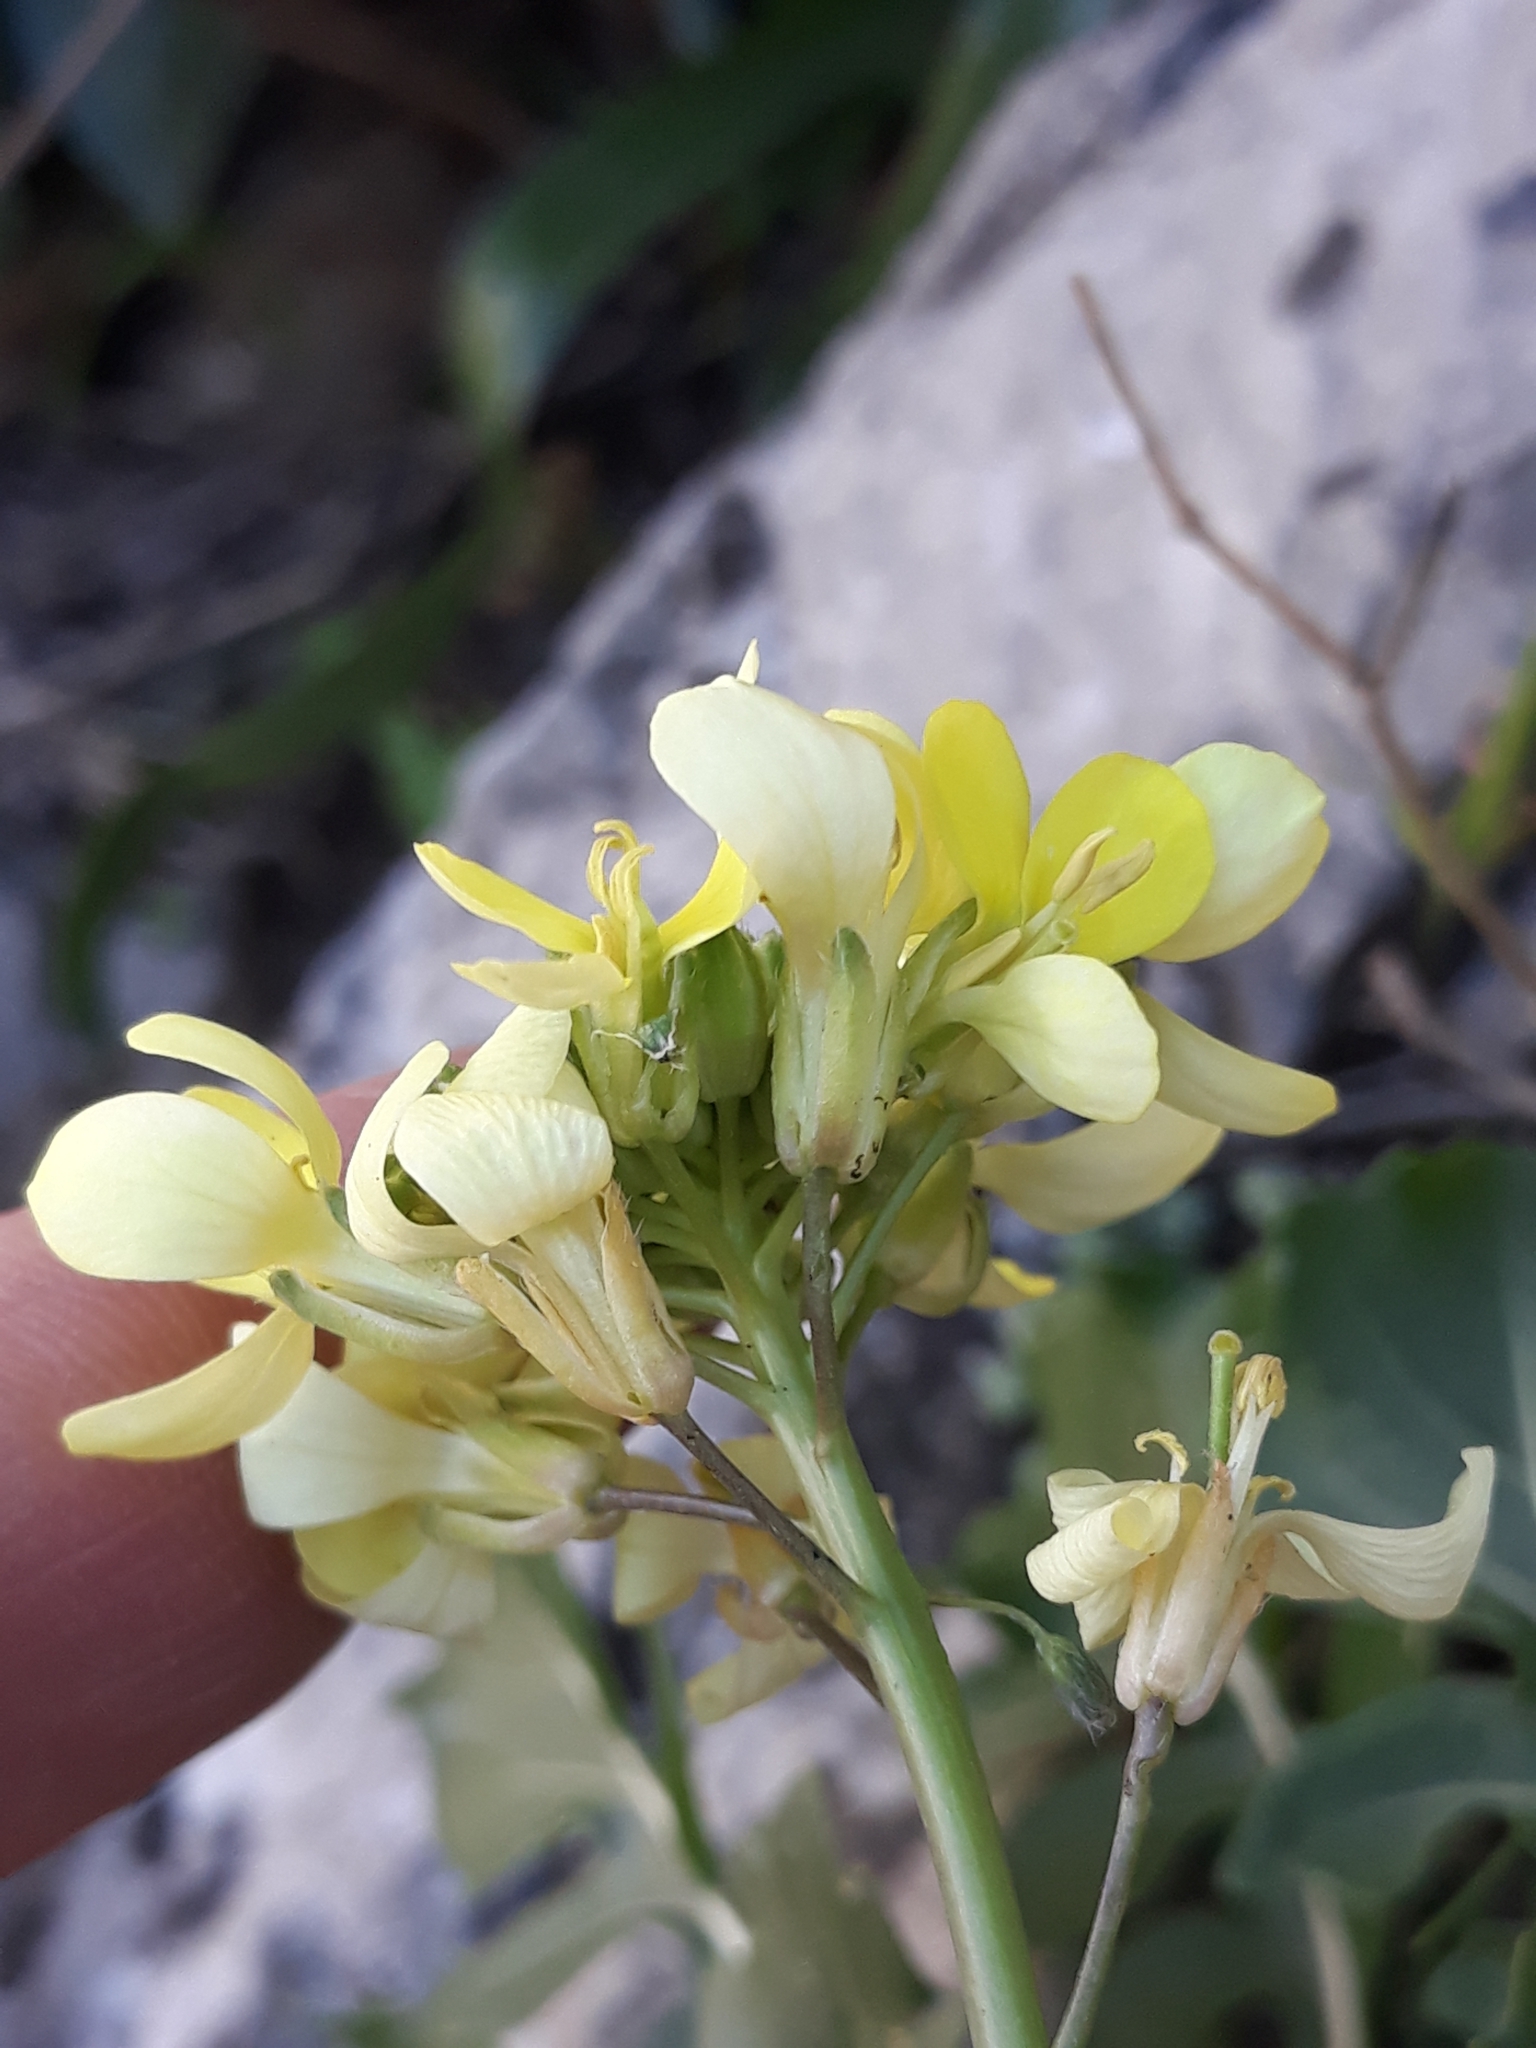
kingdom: Plantae
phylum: Tracheophyta
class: Magnoliopsida
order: Brassicales
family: Brassicaceae
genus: Brassica
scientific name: Brassica gravinae
